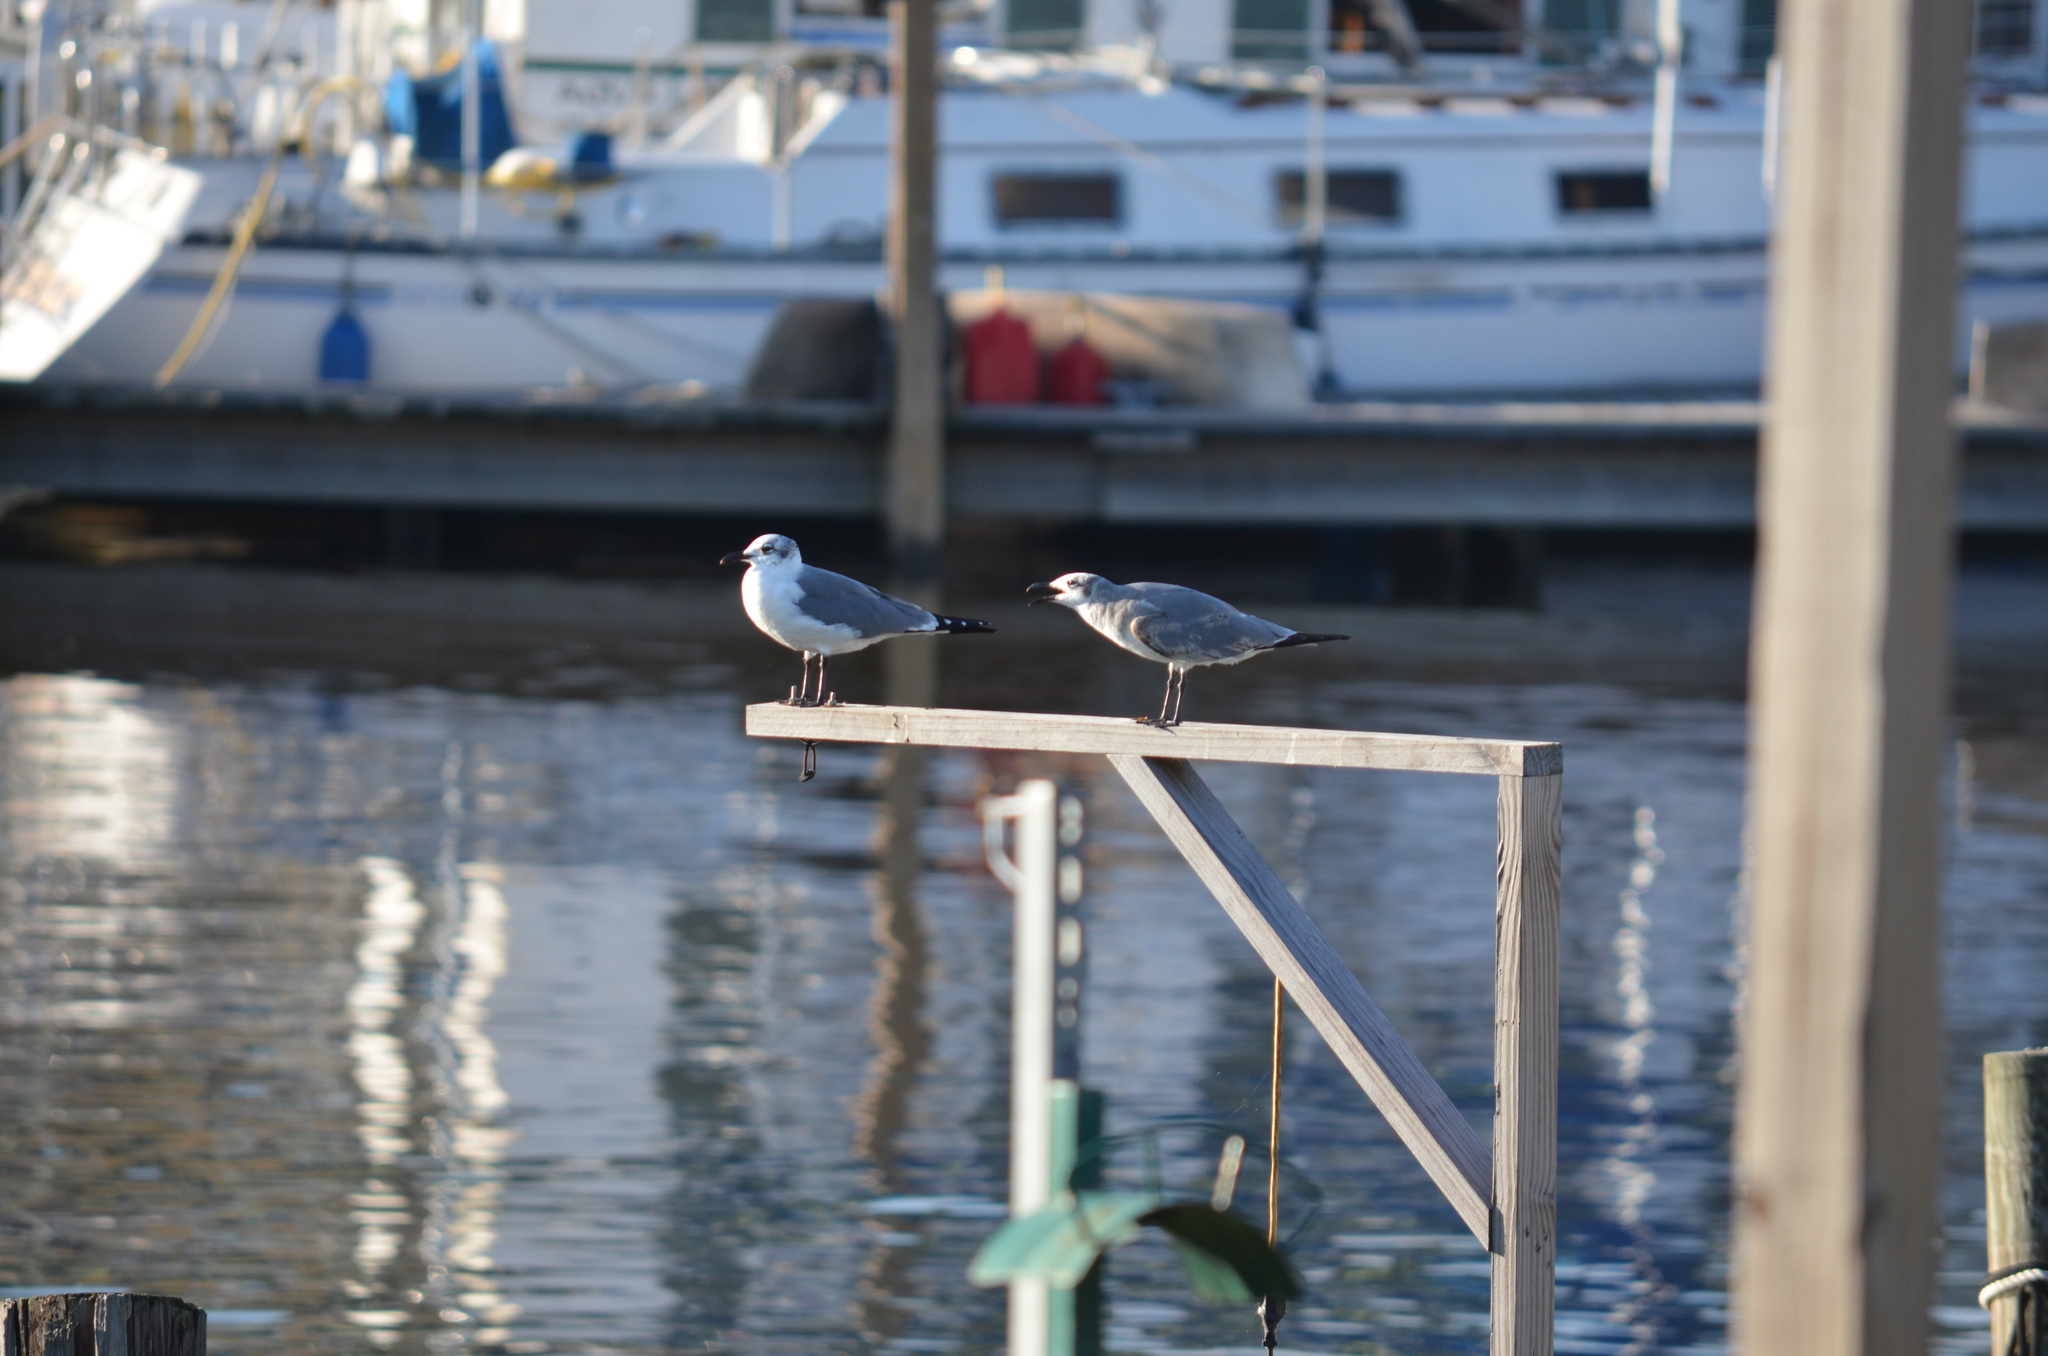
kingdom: Animalia
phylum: Chordata
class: Aves
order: Charadriiformes
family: Laridae
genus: Leucophaeus
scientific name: Leucophaeus atricilla
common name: Laughing gull
